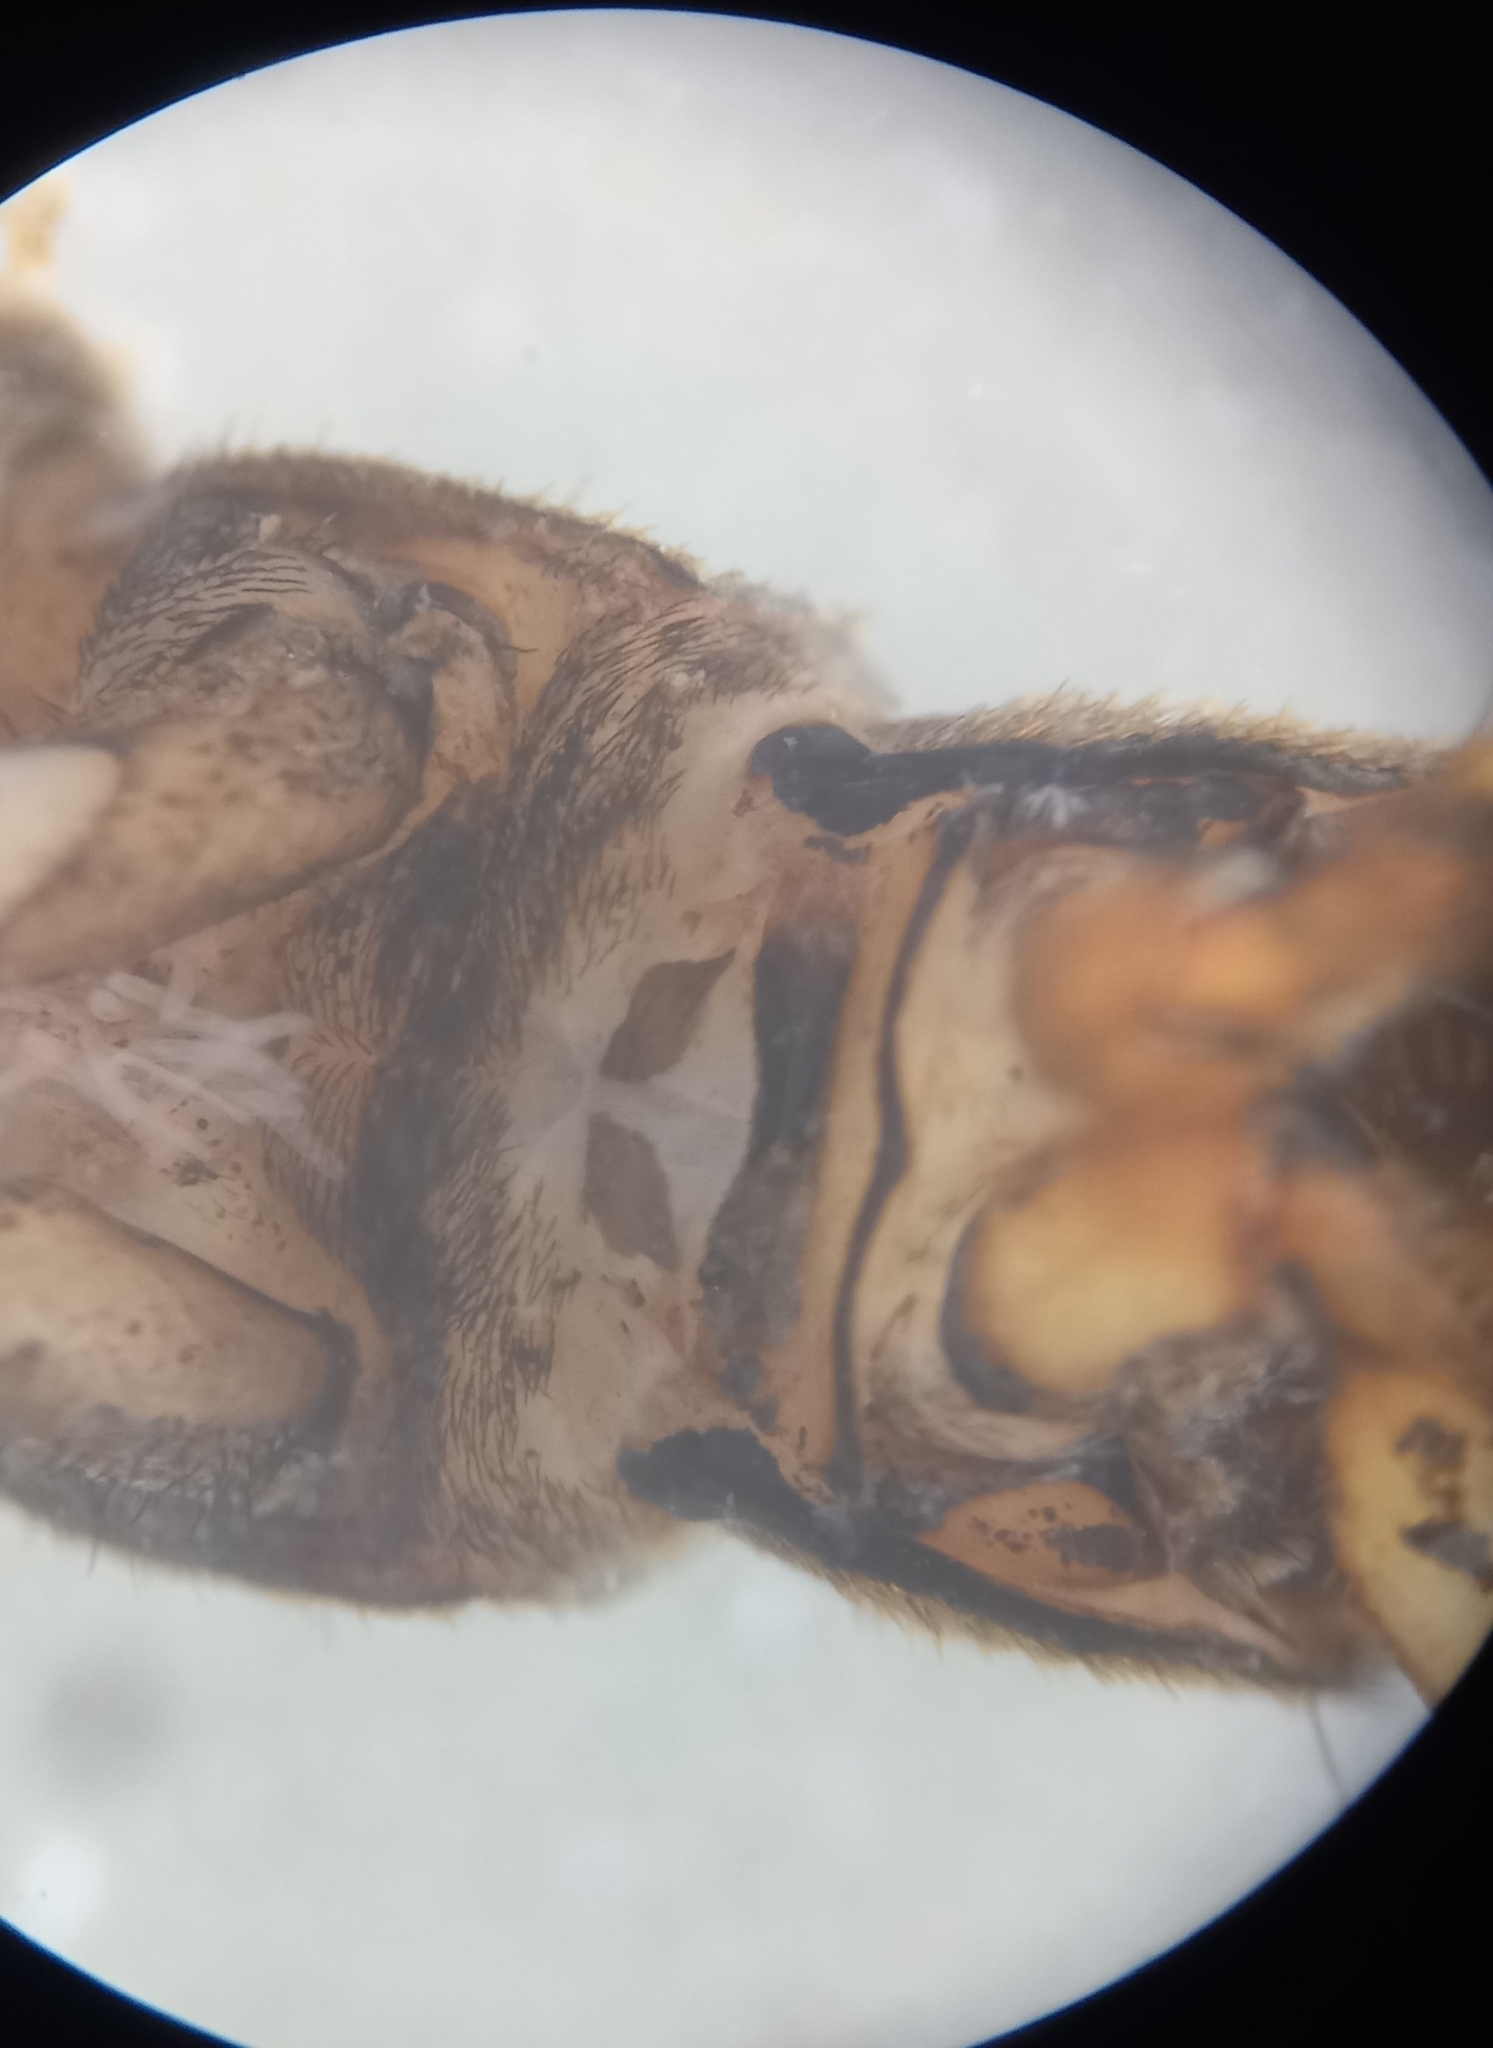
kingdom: Animalia
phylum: Arthropoda
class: Insecta
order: Trichoptera
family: Hydropsychidae
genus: Hydropsyche
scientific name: Hydropsyche angustipennis
